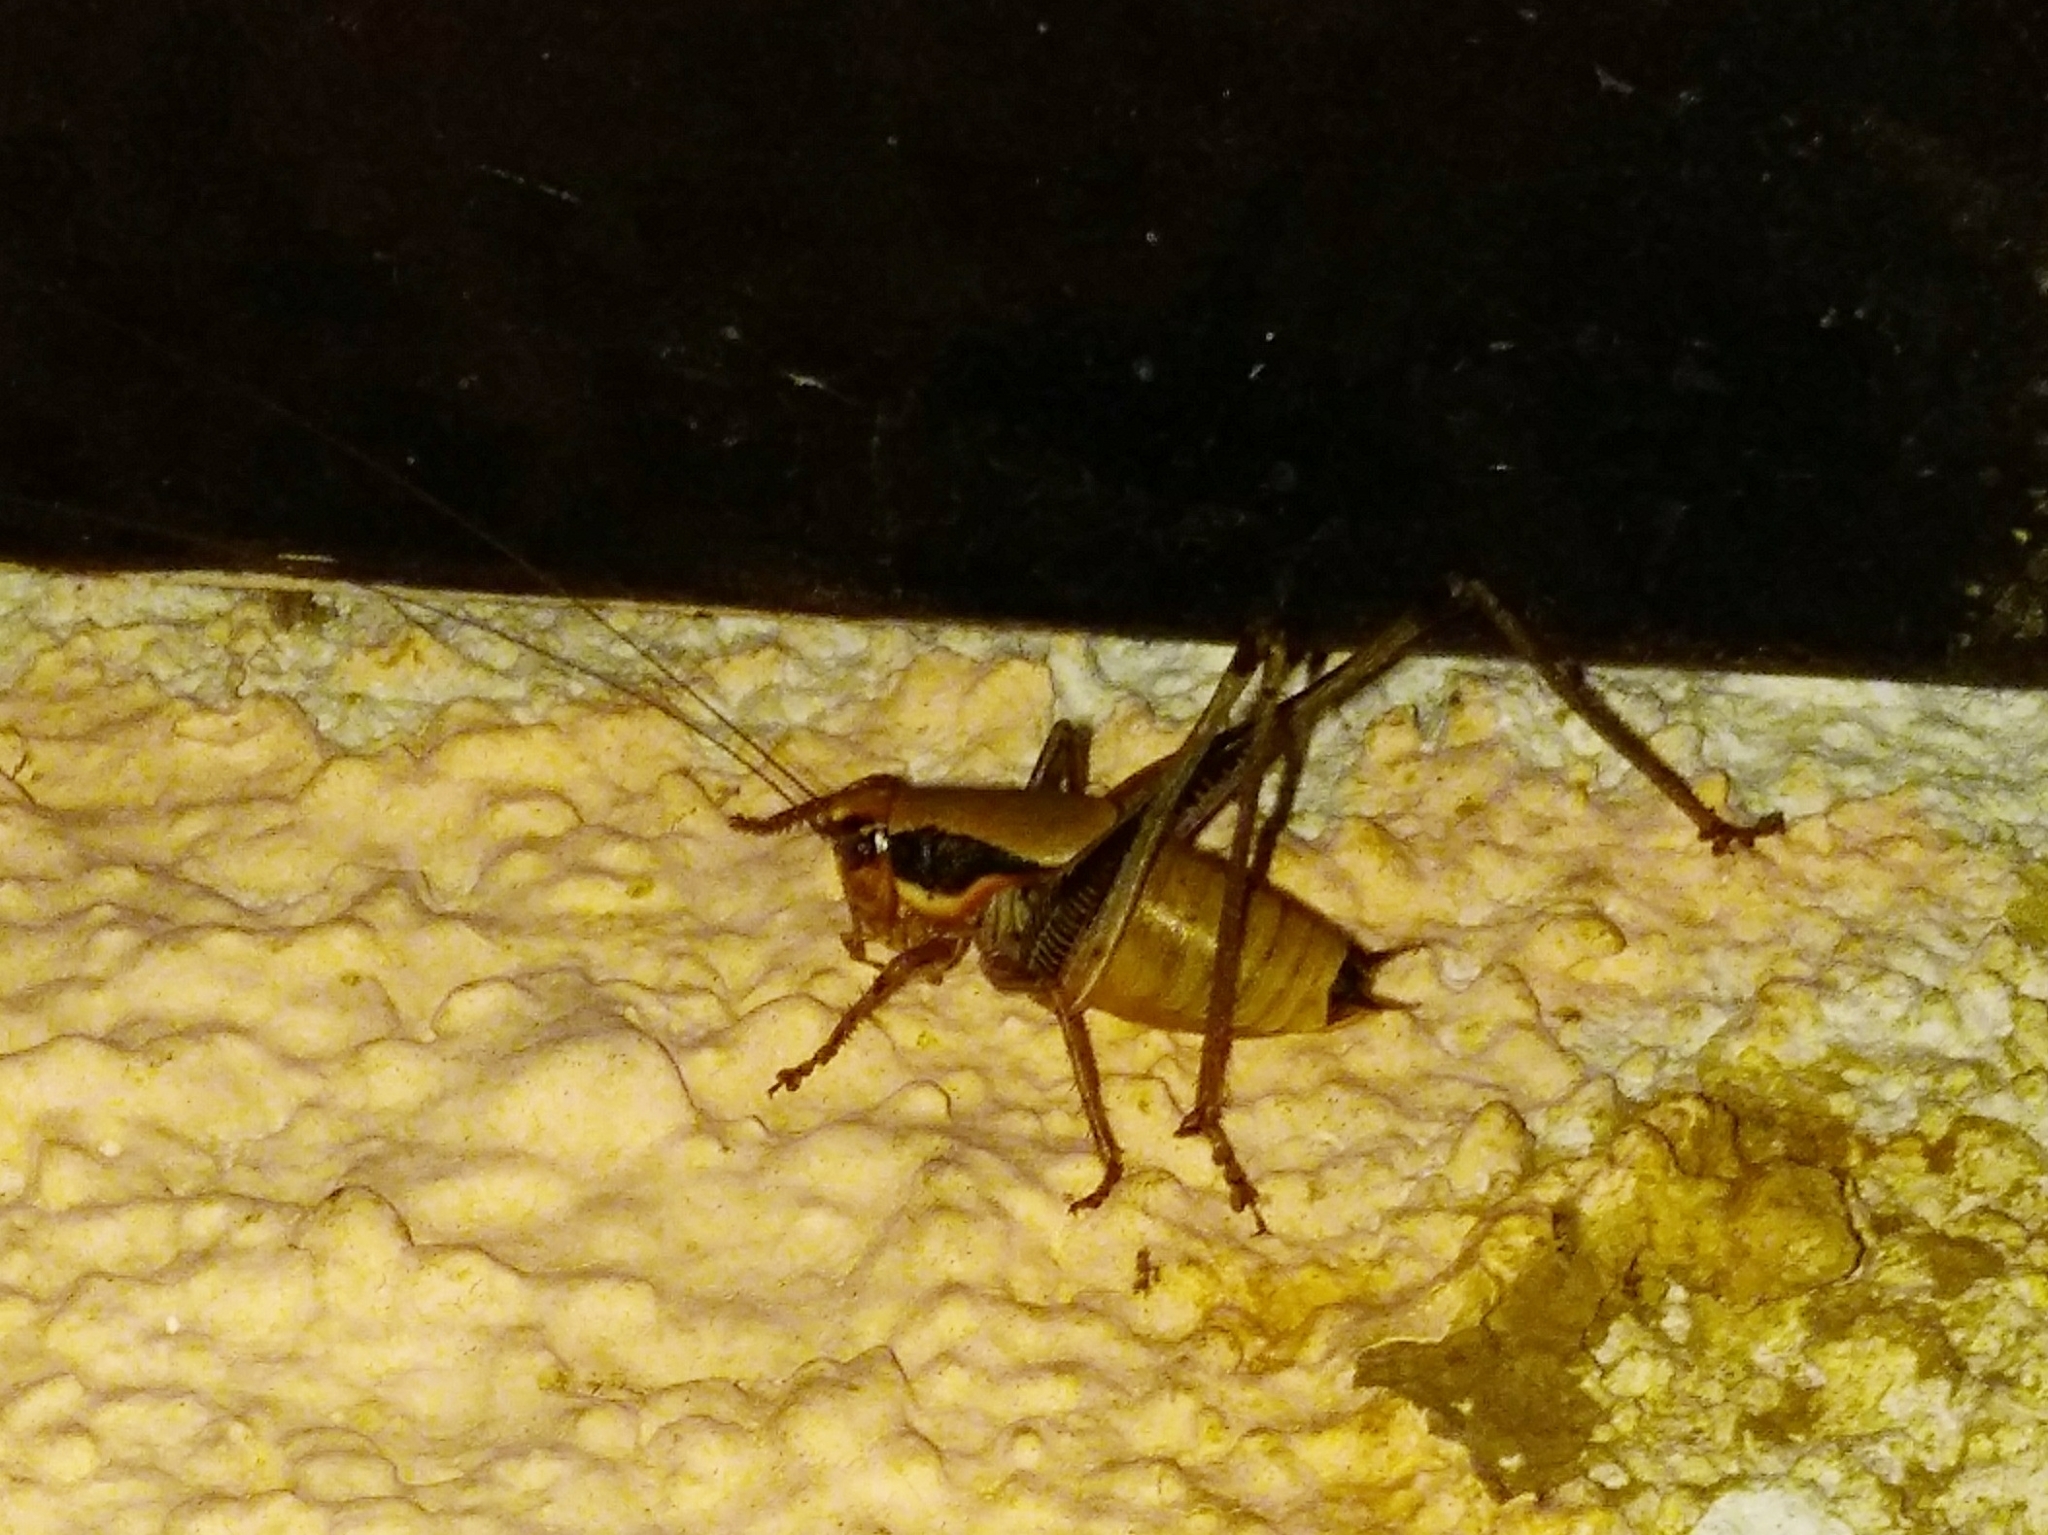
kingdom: Animalia
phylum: Arthropoda
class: Insecta
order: Orthoptera
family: Tettigoniidae
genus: Eupholidoptera
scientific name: Eupholidoptera megastyla
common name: Greek marbled bush-cricket
